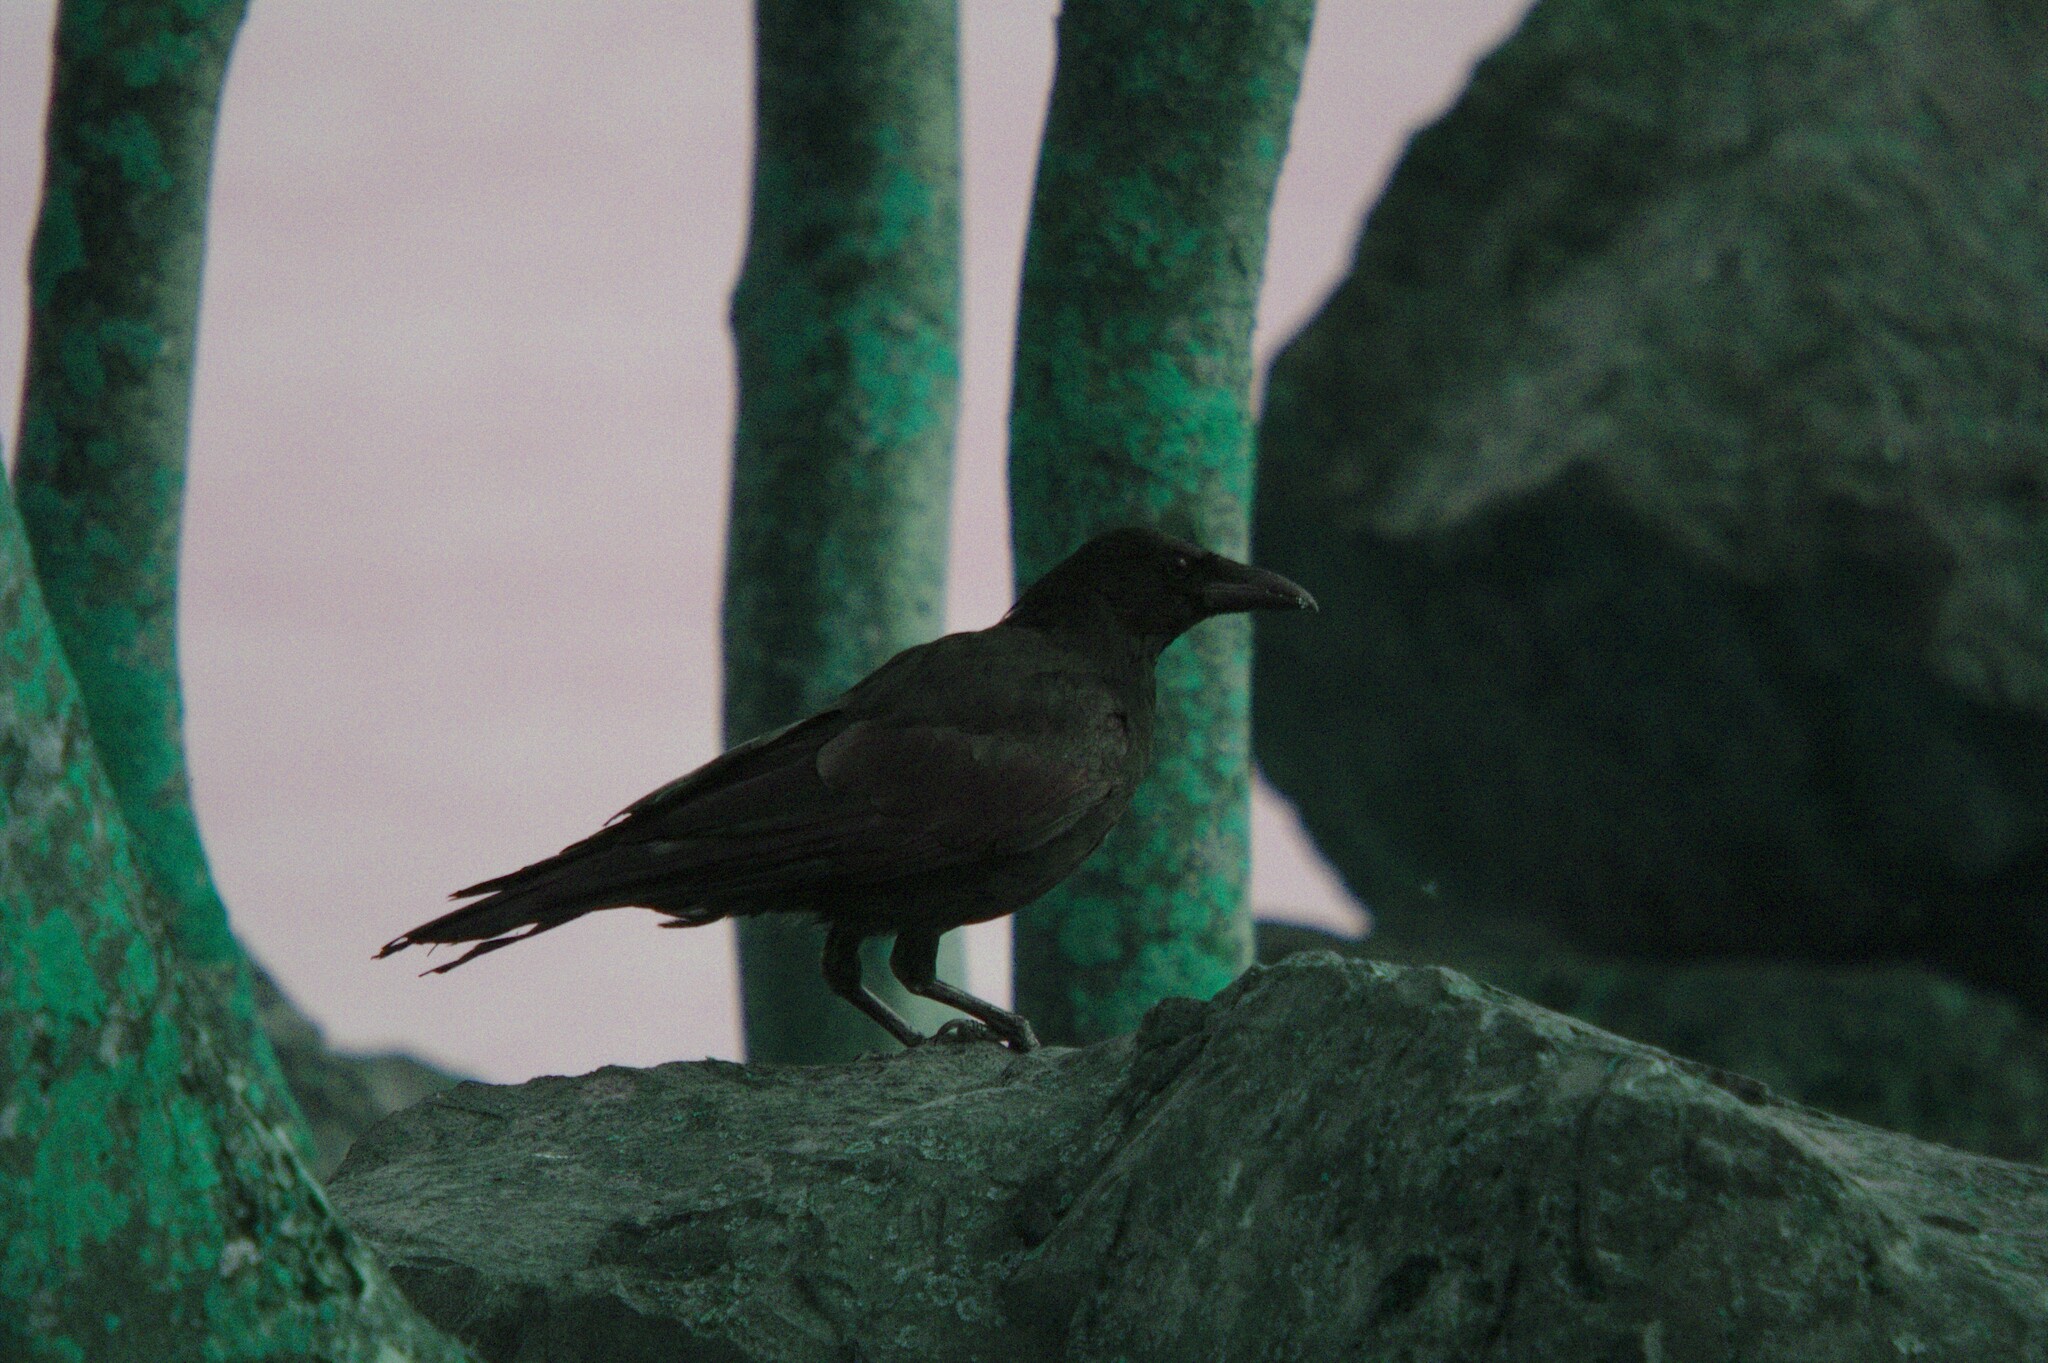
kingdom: Animalia
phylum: Chordata
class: Aves
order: Passeriformes
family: Corvidae
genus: Corvus
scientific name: Corvus corone
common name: Carrion crow
